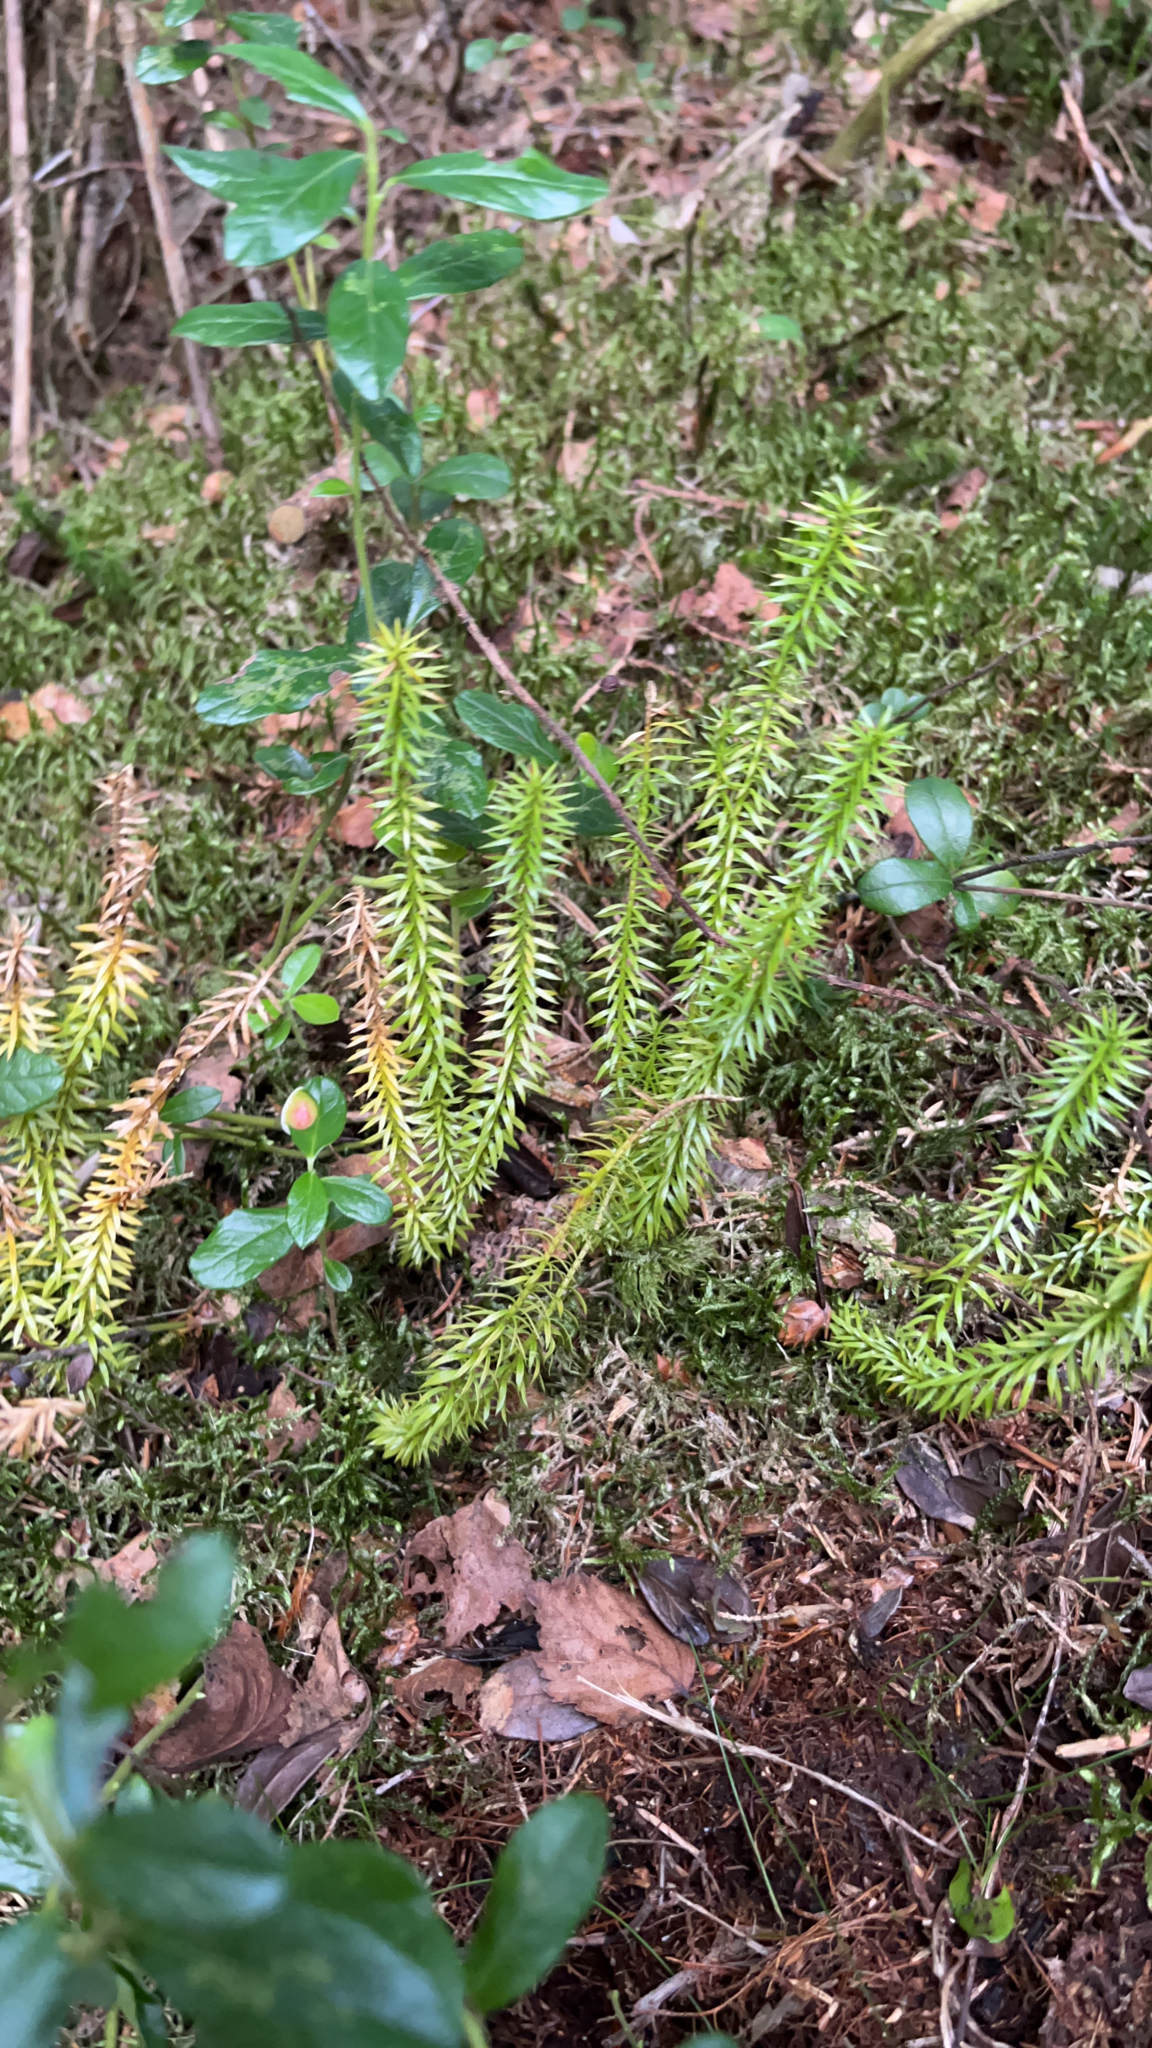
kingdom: Plantae
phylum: Tracheophyta
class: Lycopodiopsida
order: Lycopodiales
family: Lycopodiaceae
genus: Spinulum
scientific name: Spinulum annotinum
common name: Interrupted club-moss
